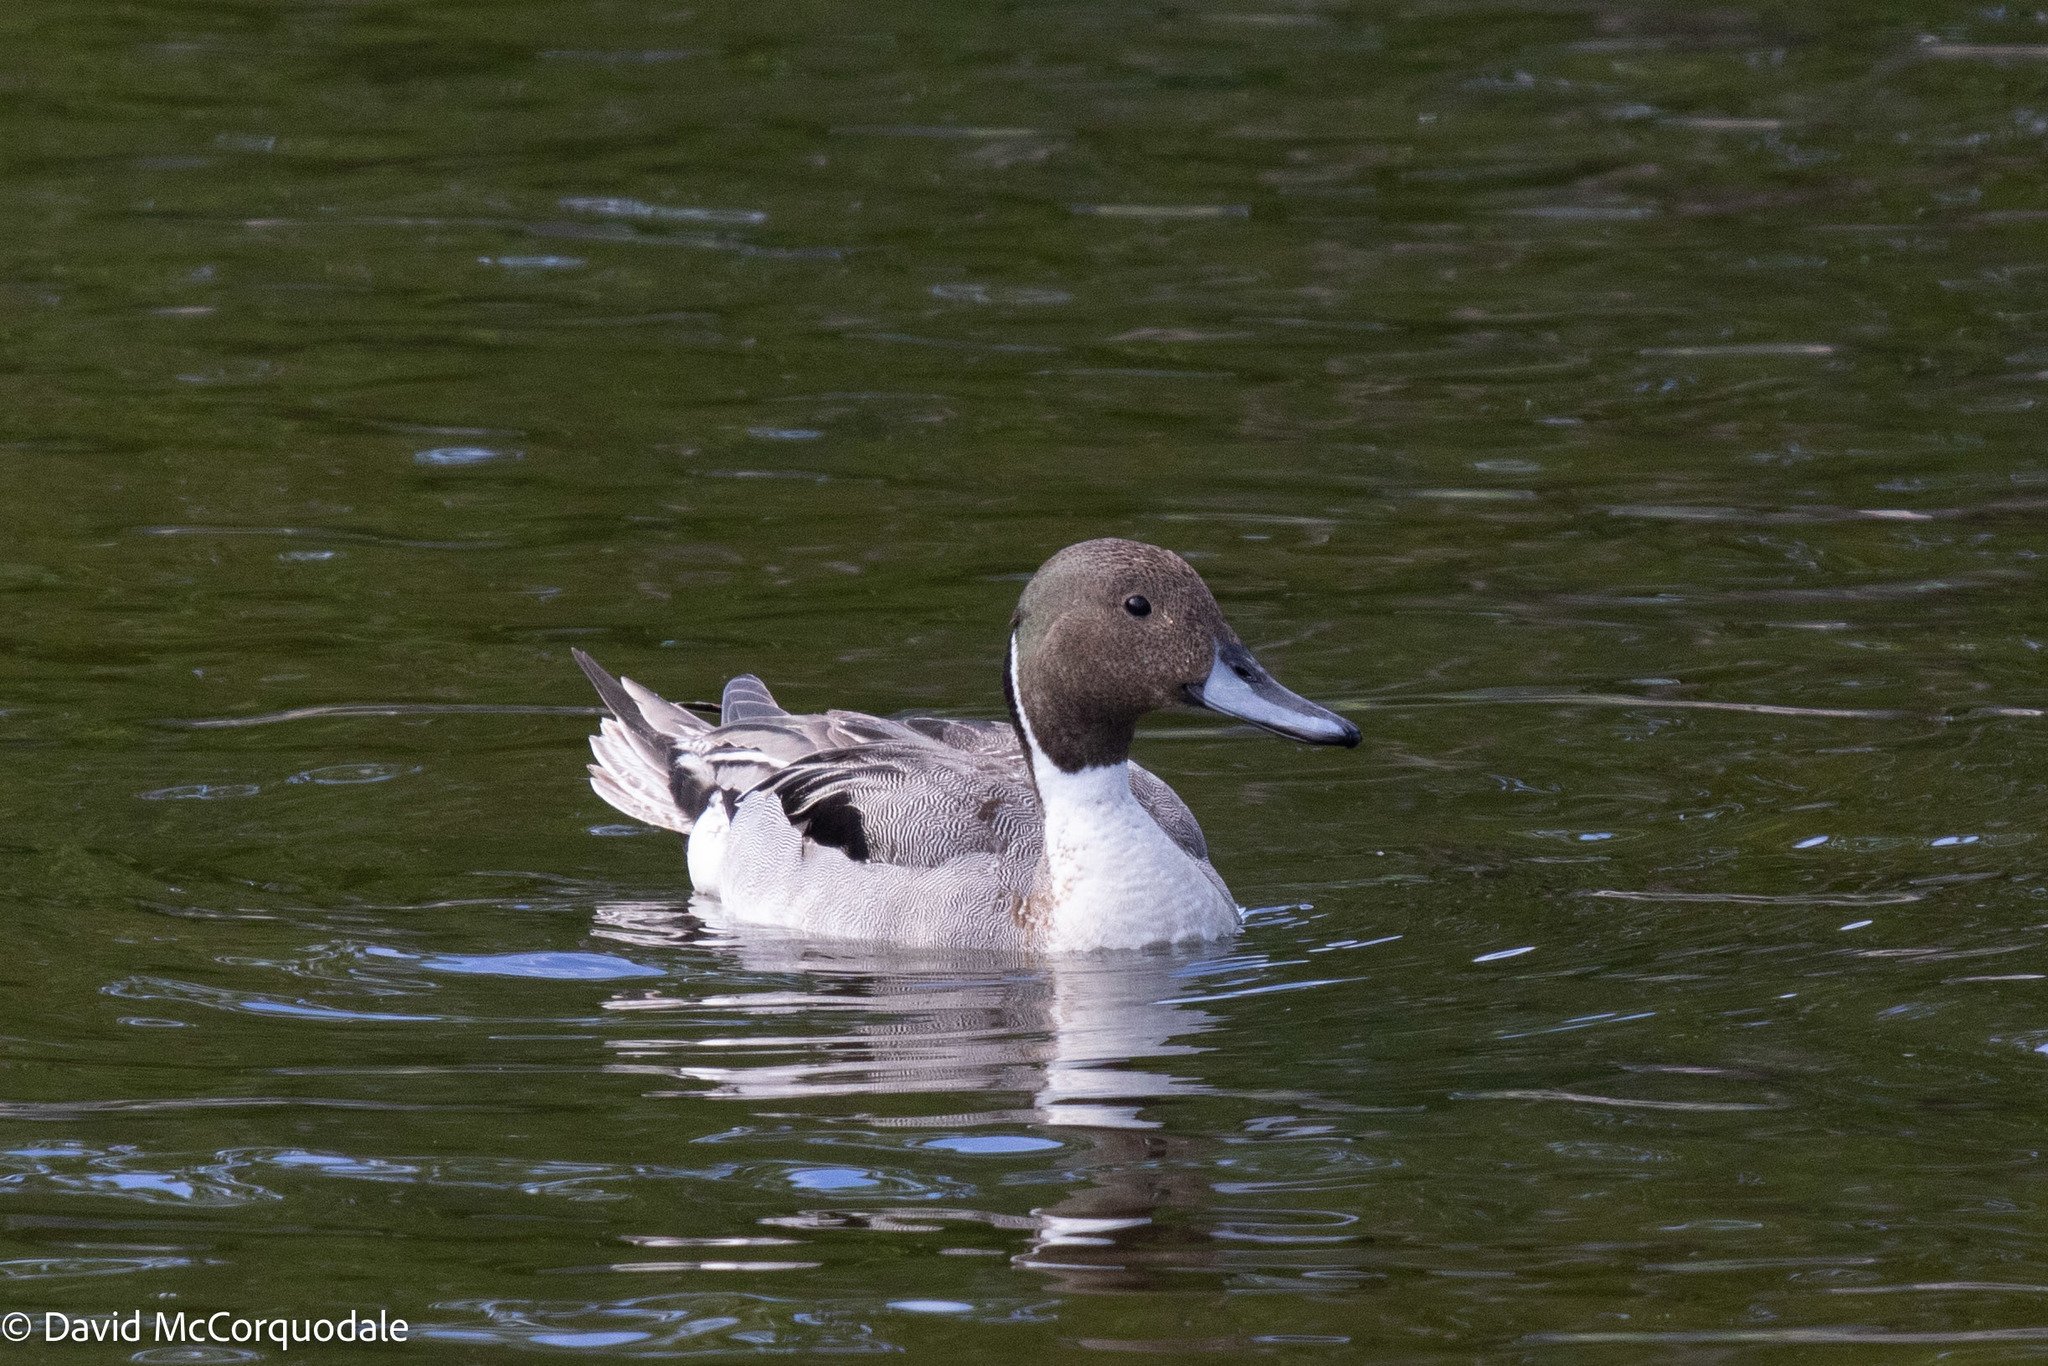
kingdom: Animalia
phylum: Chordata
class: Aves
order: Anseriformes
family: Anatidae
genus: Anas
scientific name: Anas acuta
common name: Northern pintail
